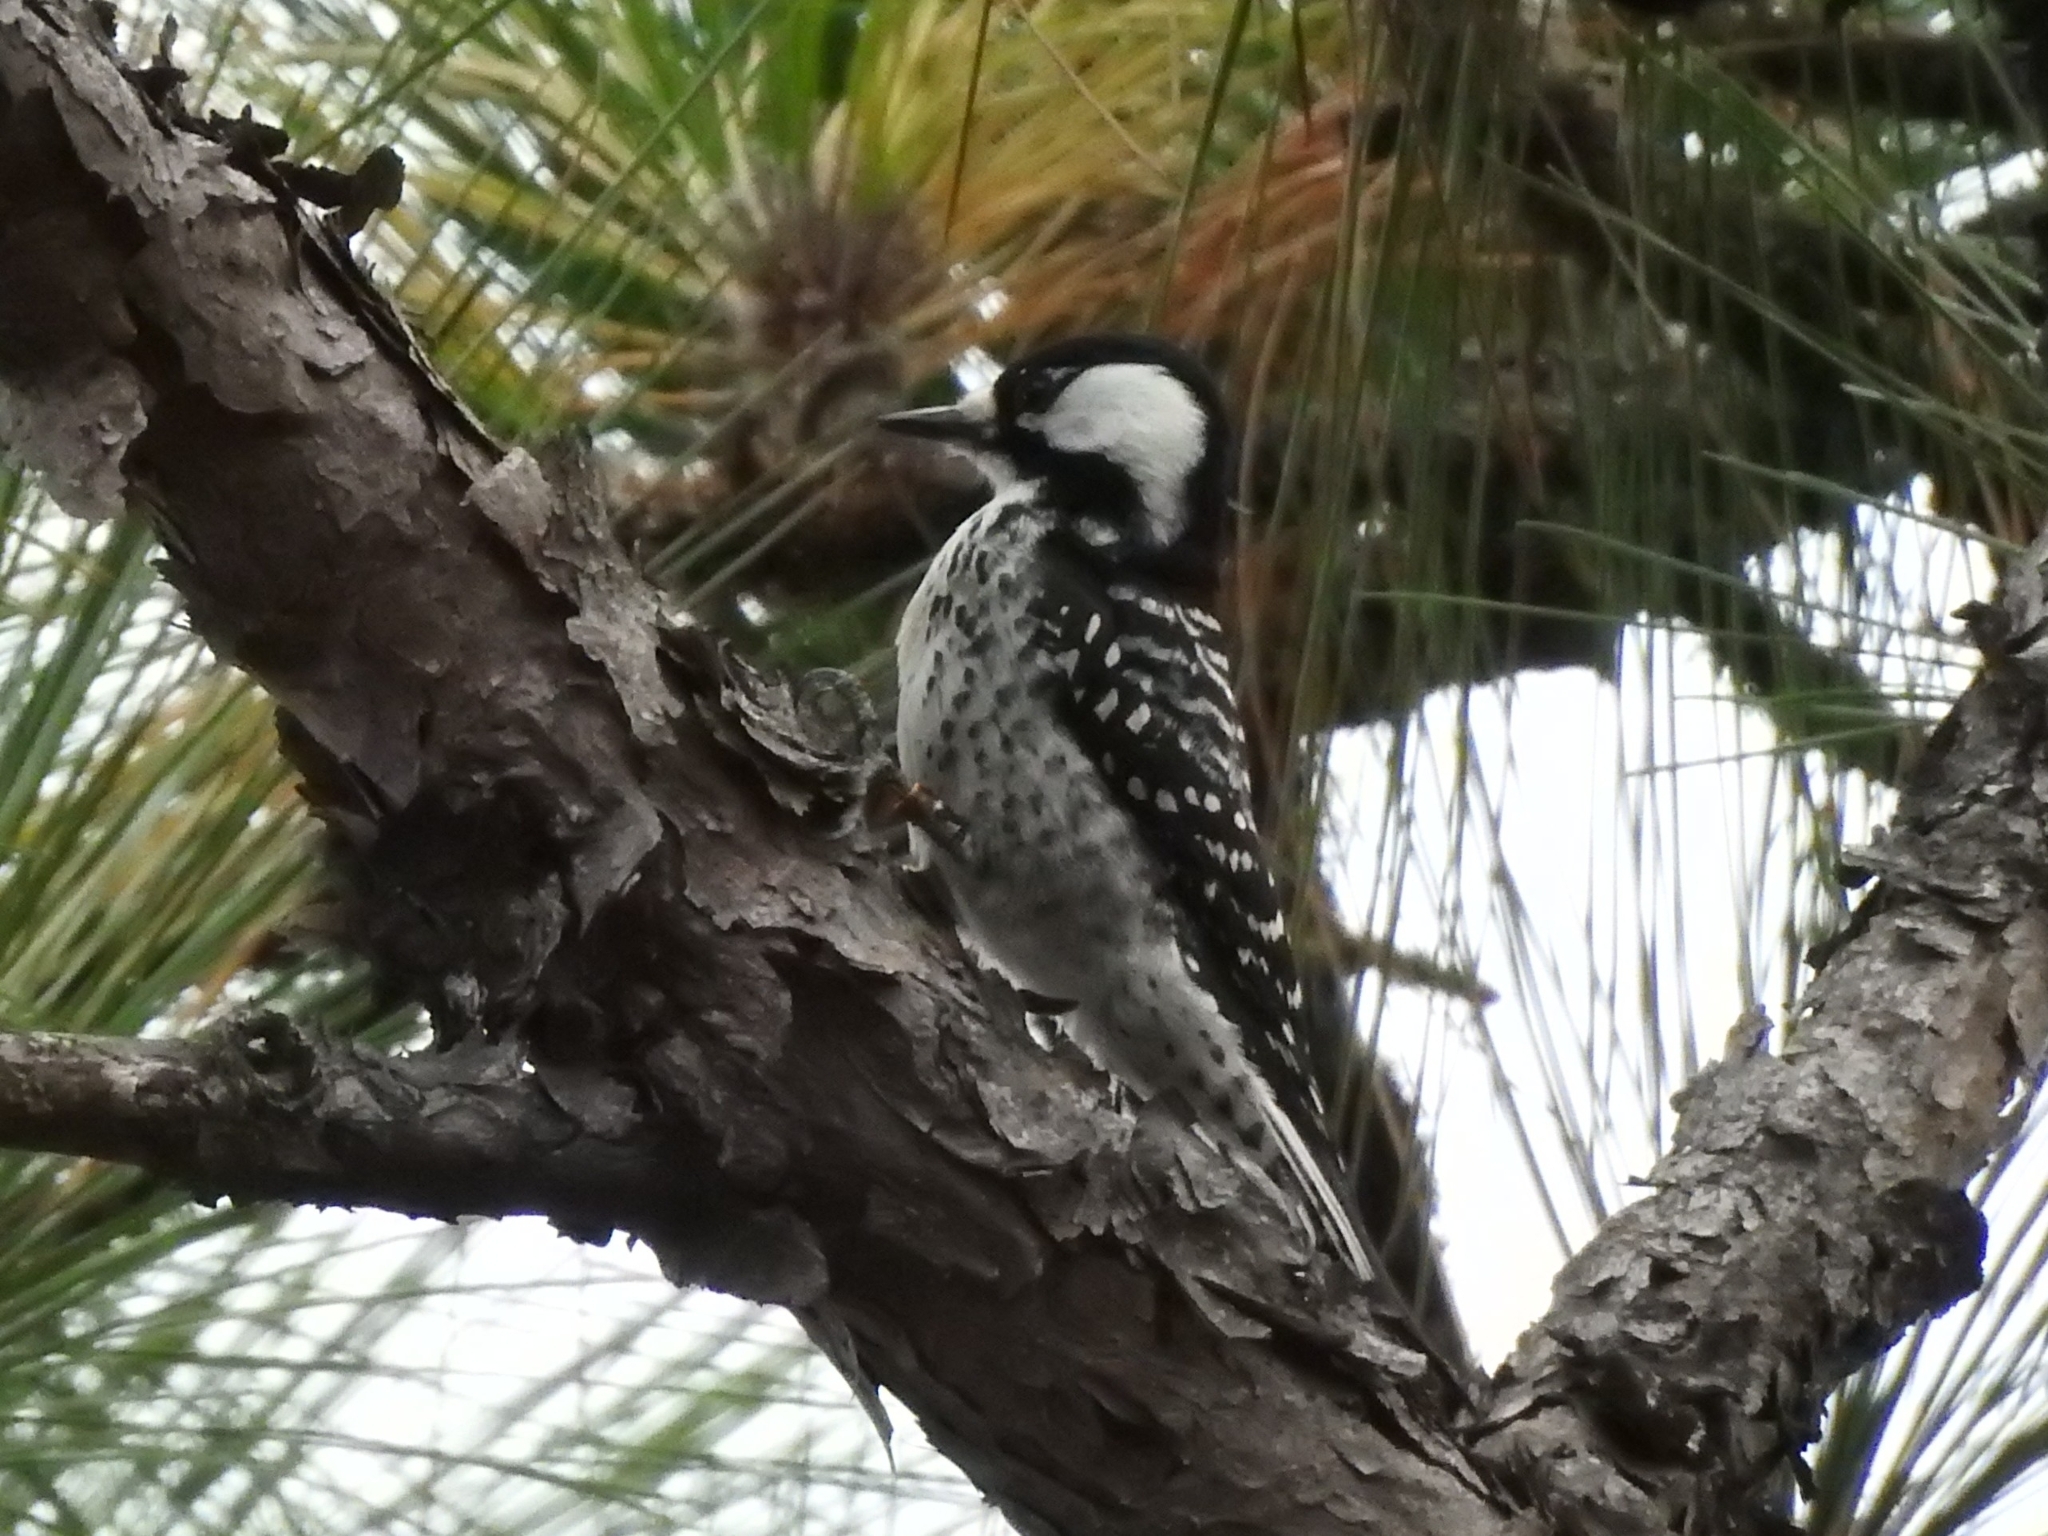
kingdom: Animalia
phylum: Chordata
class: Aves
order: Piciformes
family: Picidae
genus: Leuconotopicus
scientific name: Leuconotopicus borealis
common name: Red-cockaded woodpecker
